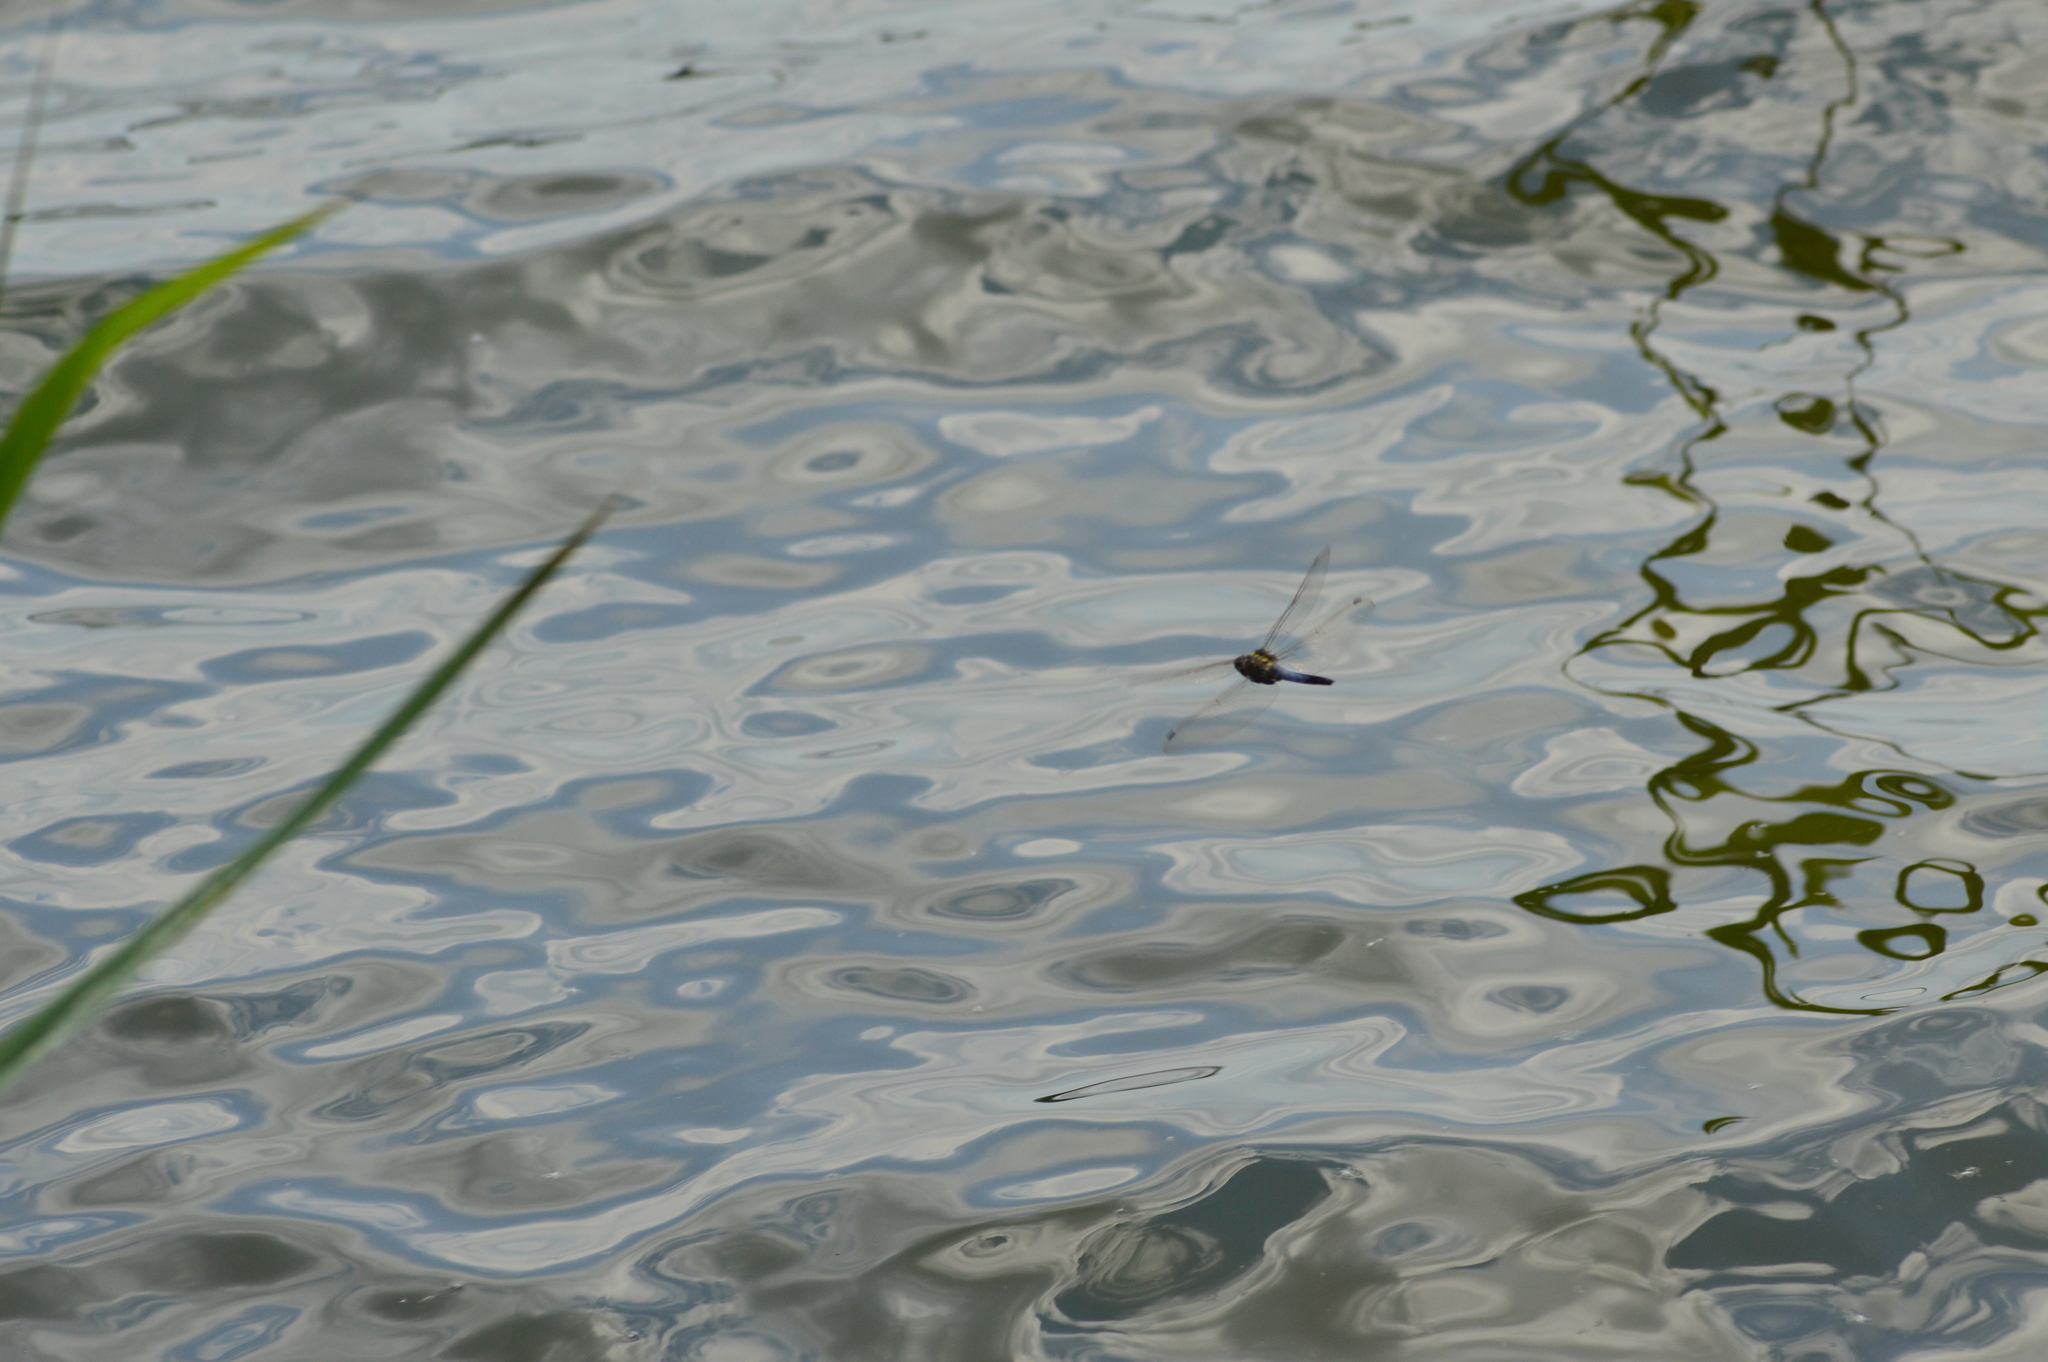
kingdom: Animalia
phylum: Arthropoda
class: Insecta
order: Odonata
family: Libellulidae
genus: Orthetrum
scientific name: Orthetrum cancellatum
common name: Black-tailed skimmer
